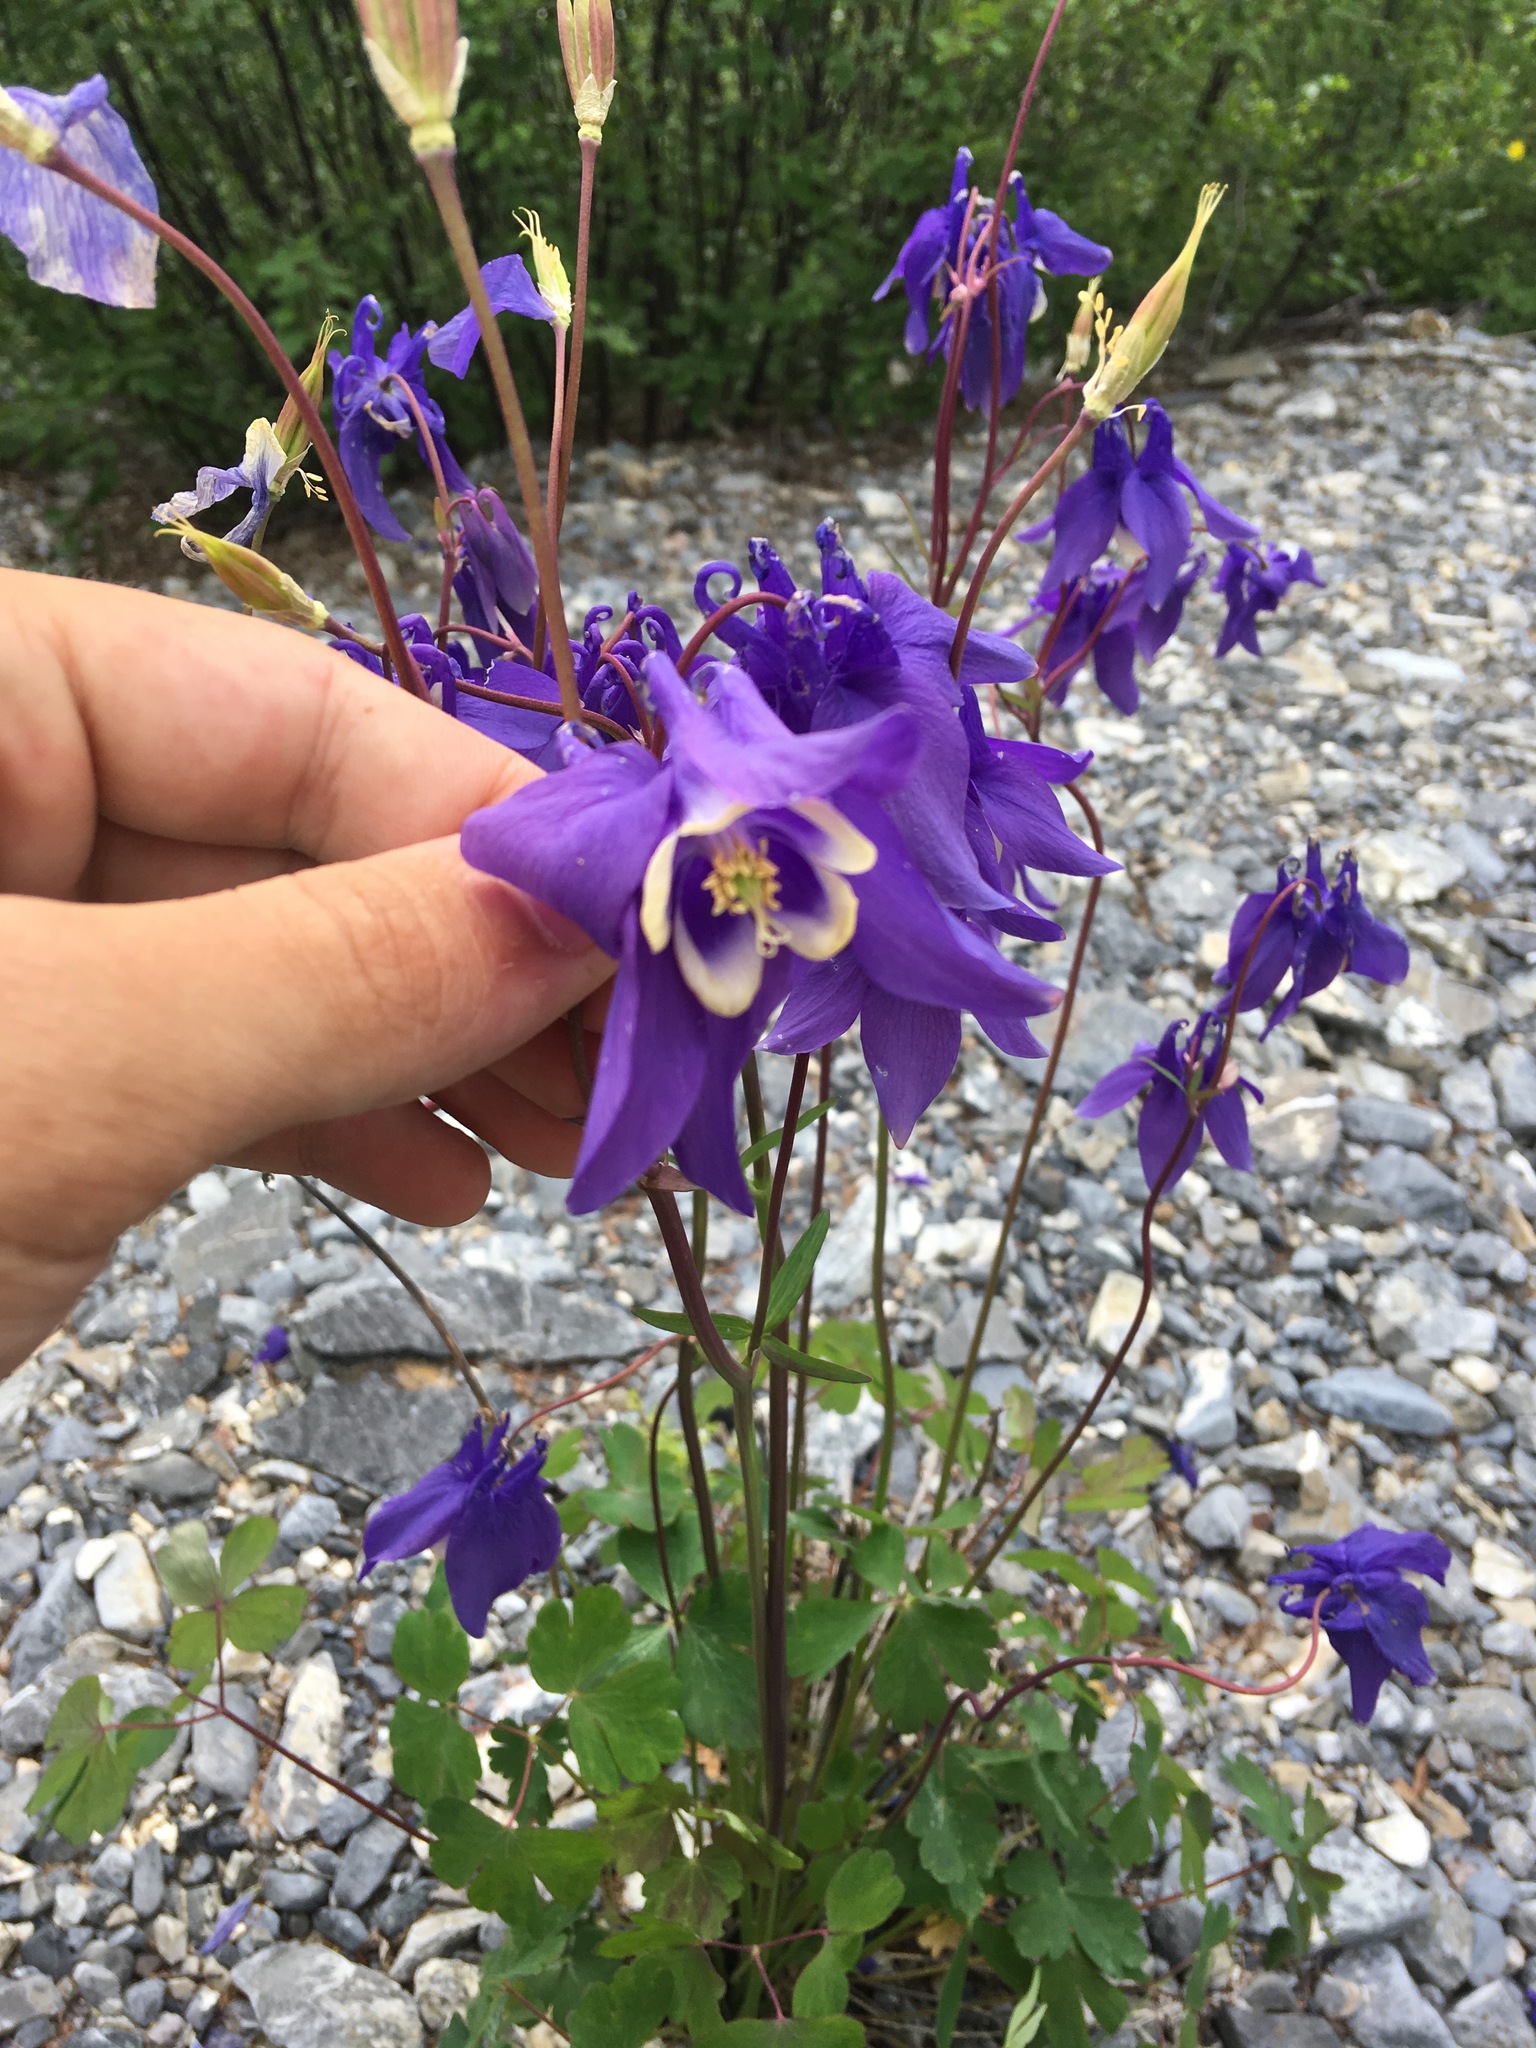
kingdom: Plantae
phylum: Tracheophyta
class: Magnoliopsida
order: Ranunculales
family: Ranunculaceae
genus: Aquilegia
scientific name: Aquilegia sibirica
